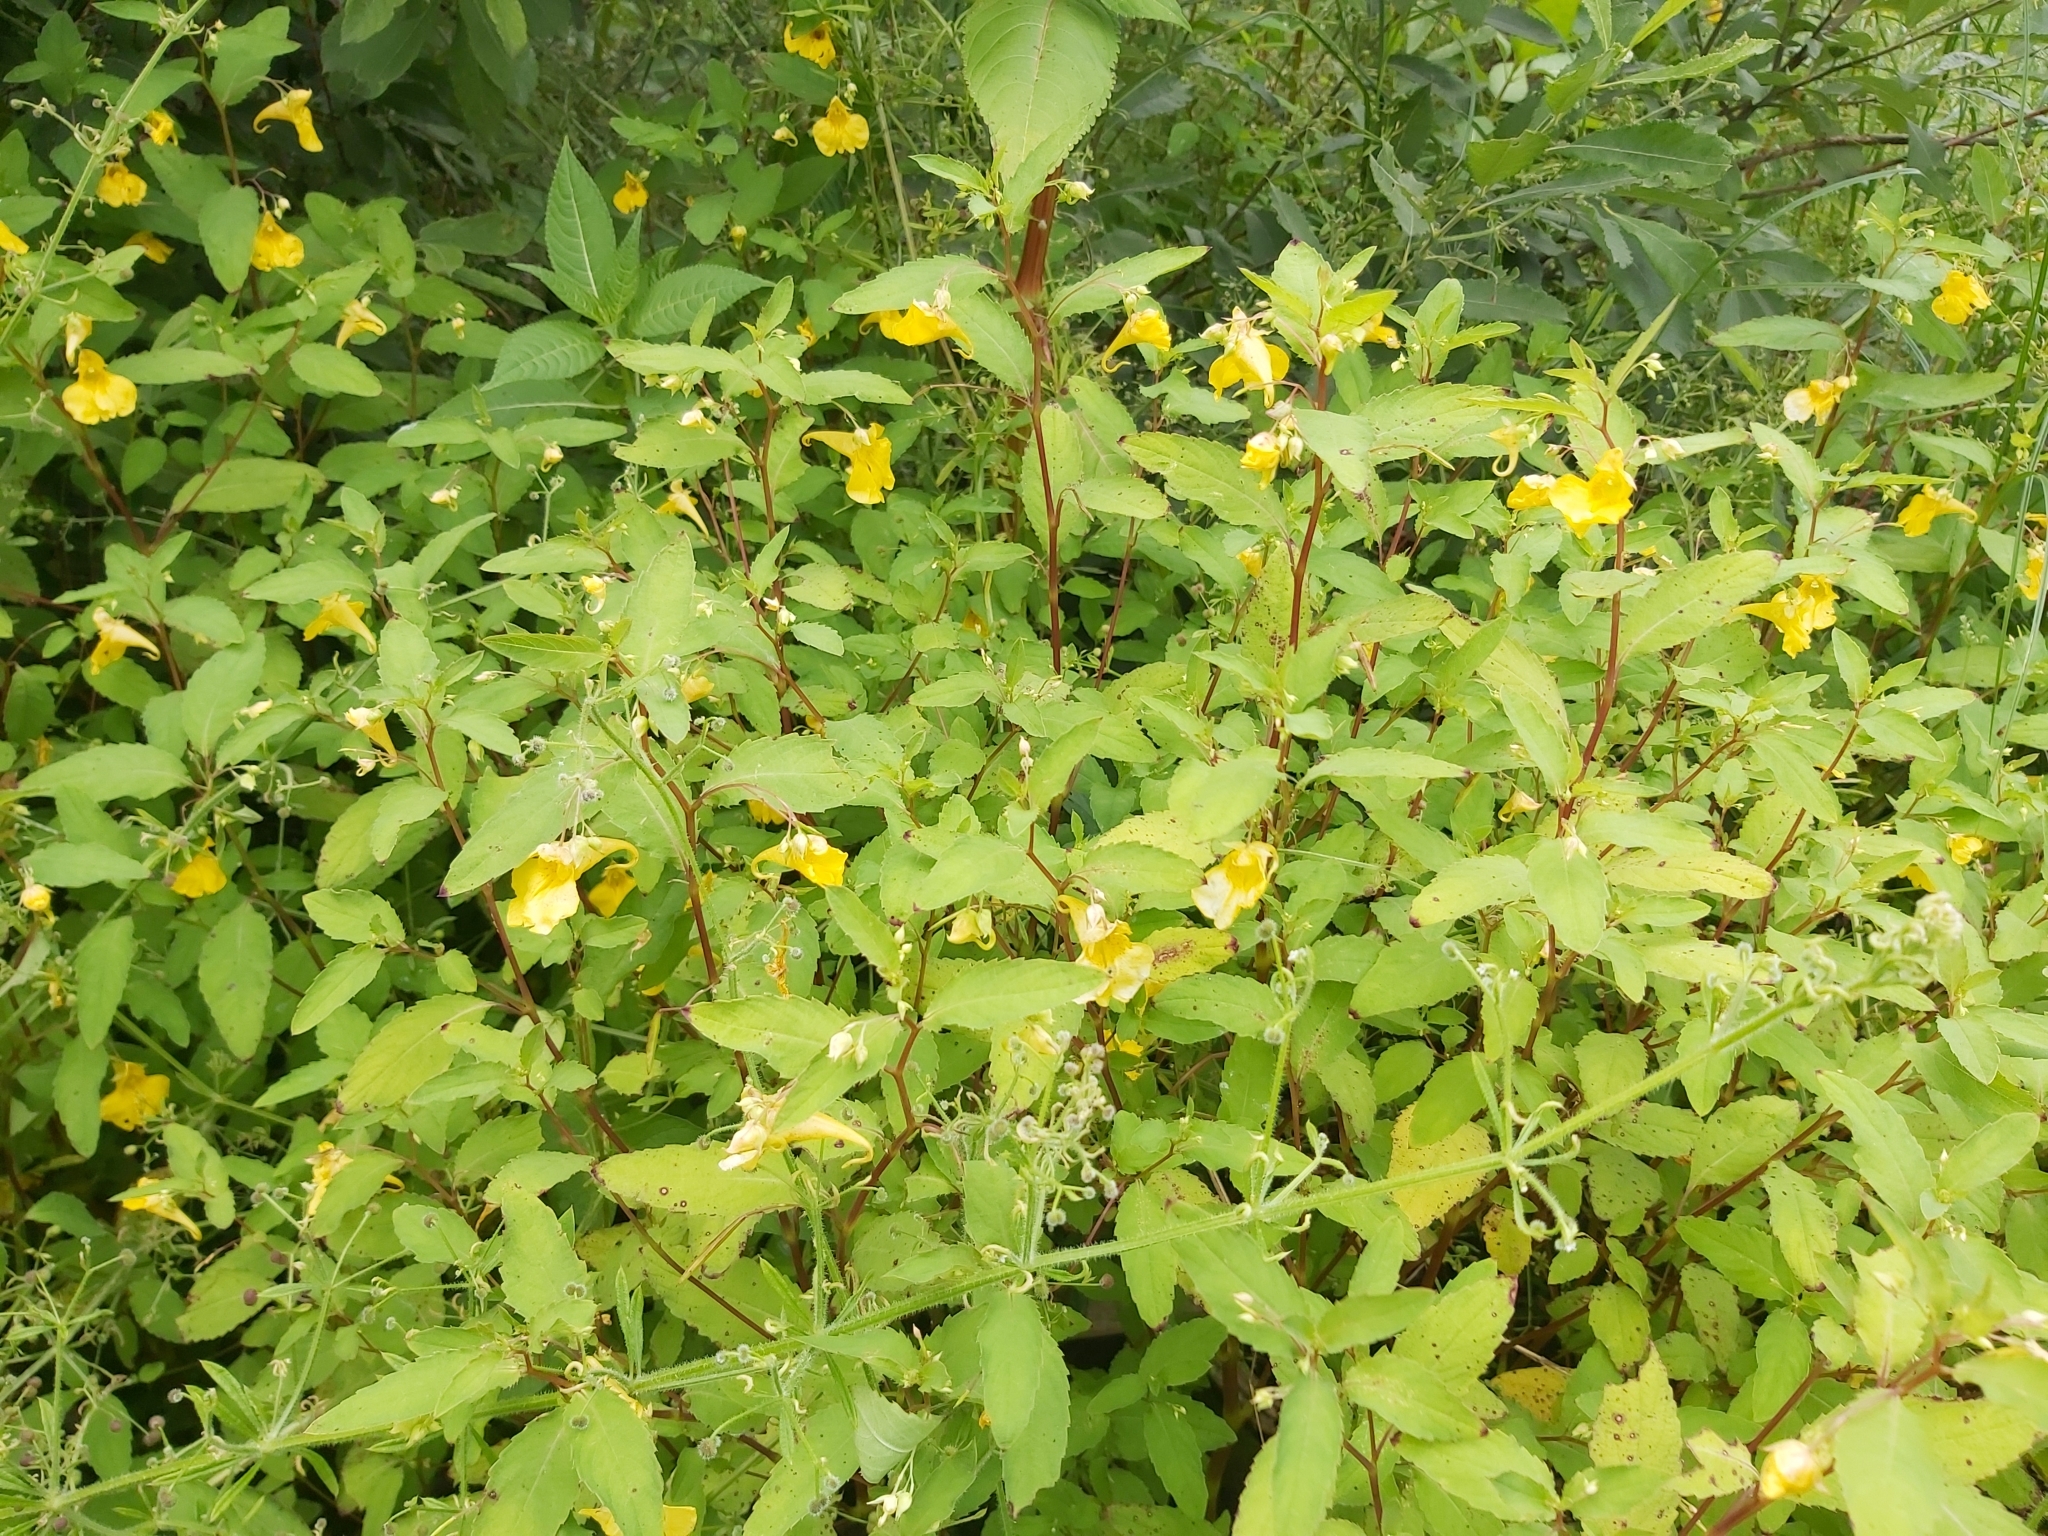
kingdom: Plantae
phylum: Tracheophyta
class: Magnoliopsida
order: Ericales
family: Balsaminaceae
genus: Impatiens
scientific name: Impatiens noli-tangere
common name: Touch-me-not balsam
